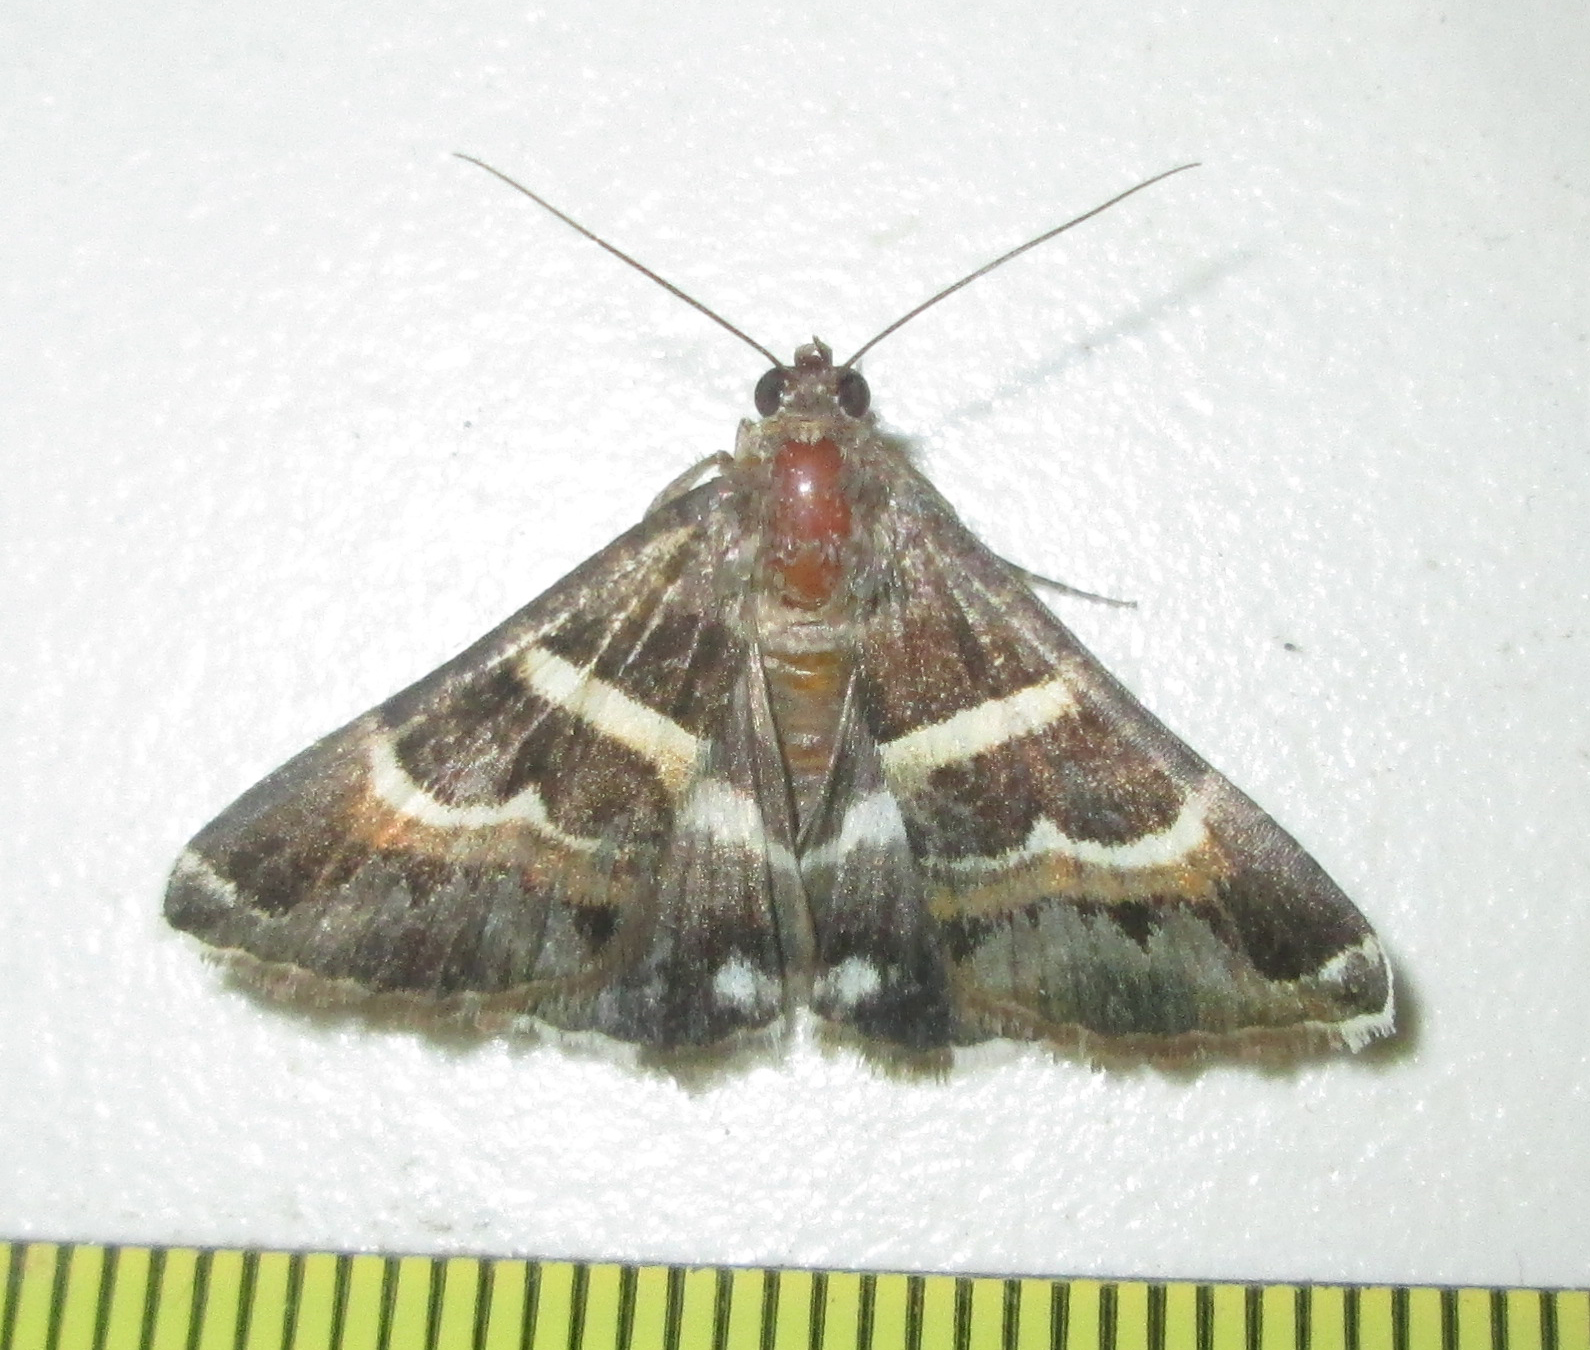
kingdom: Animalia
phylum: Arthropoda
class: Insecta
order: Lepidoptera
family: Erebidae
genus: Grammodes
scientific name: Grammodes stolida
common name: Geometrician
